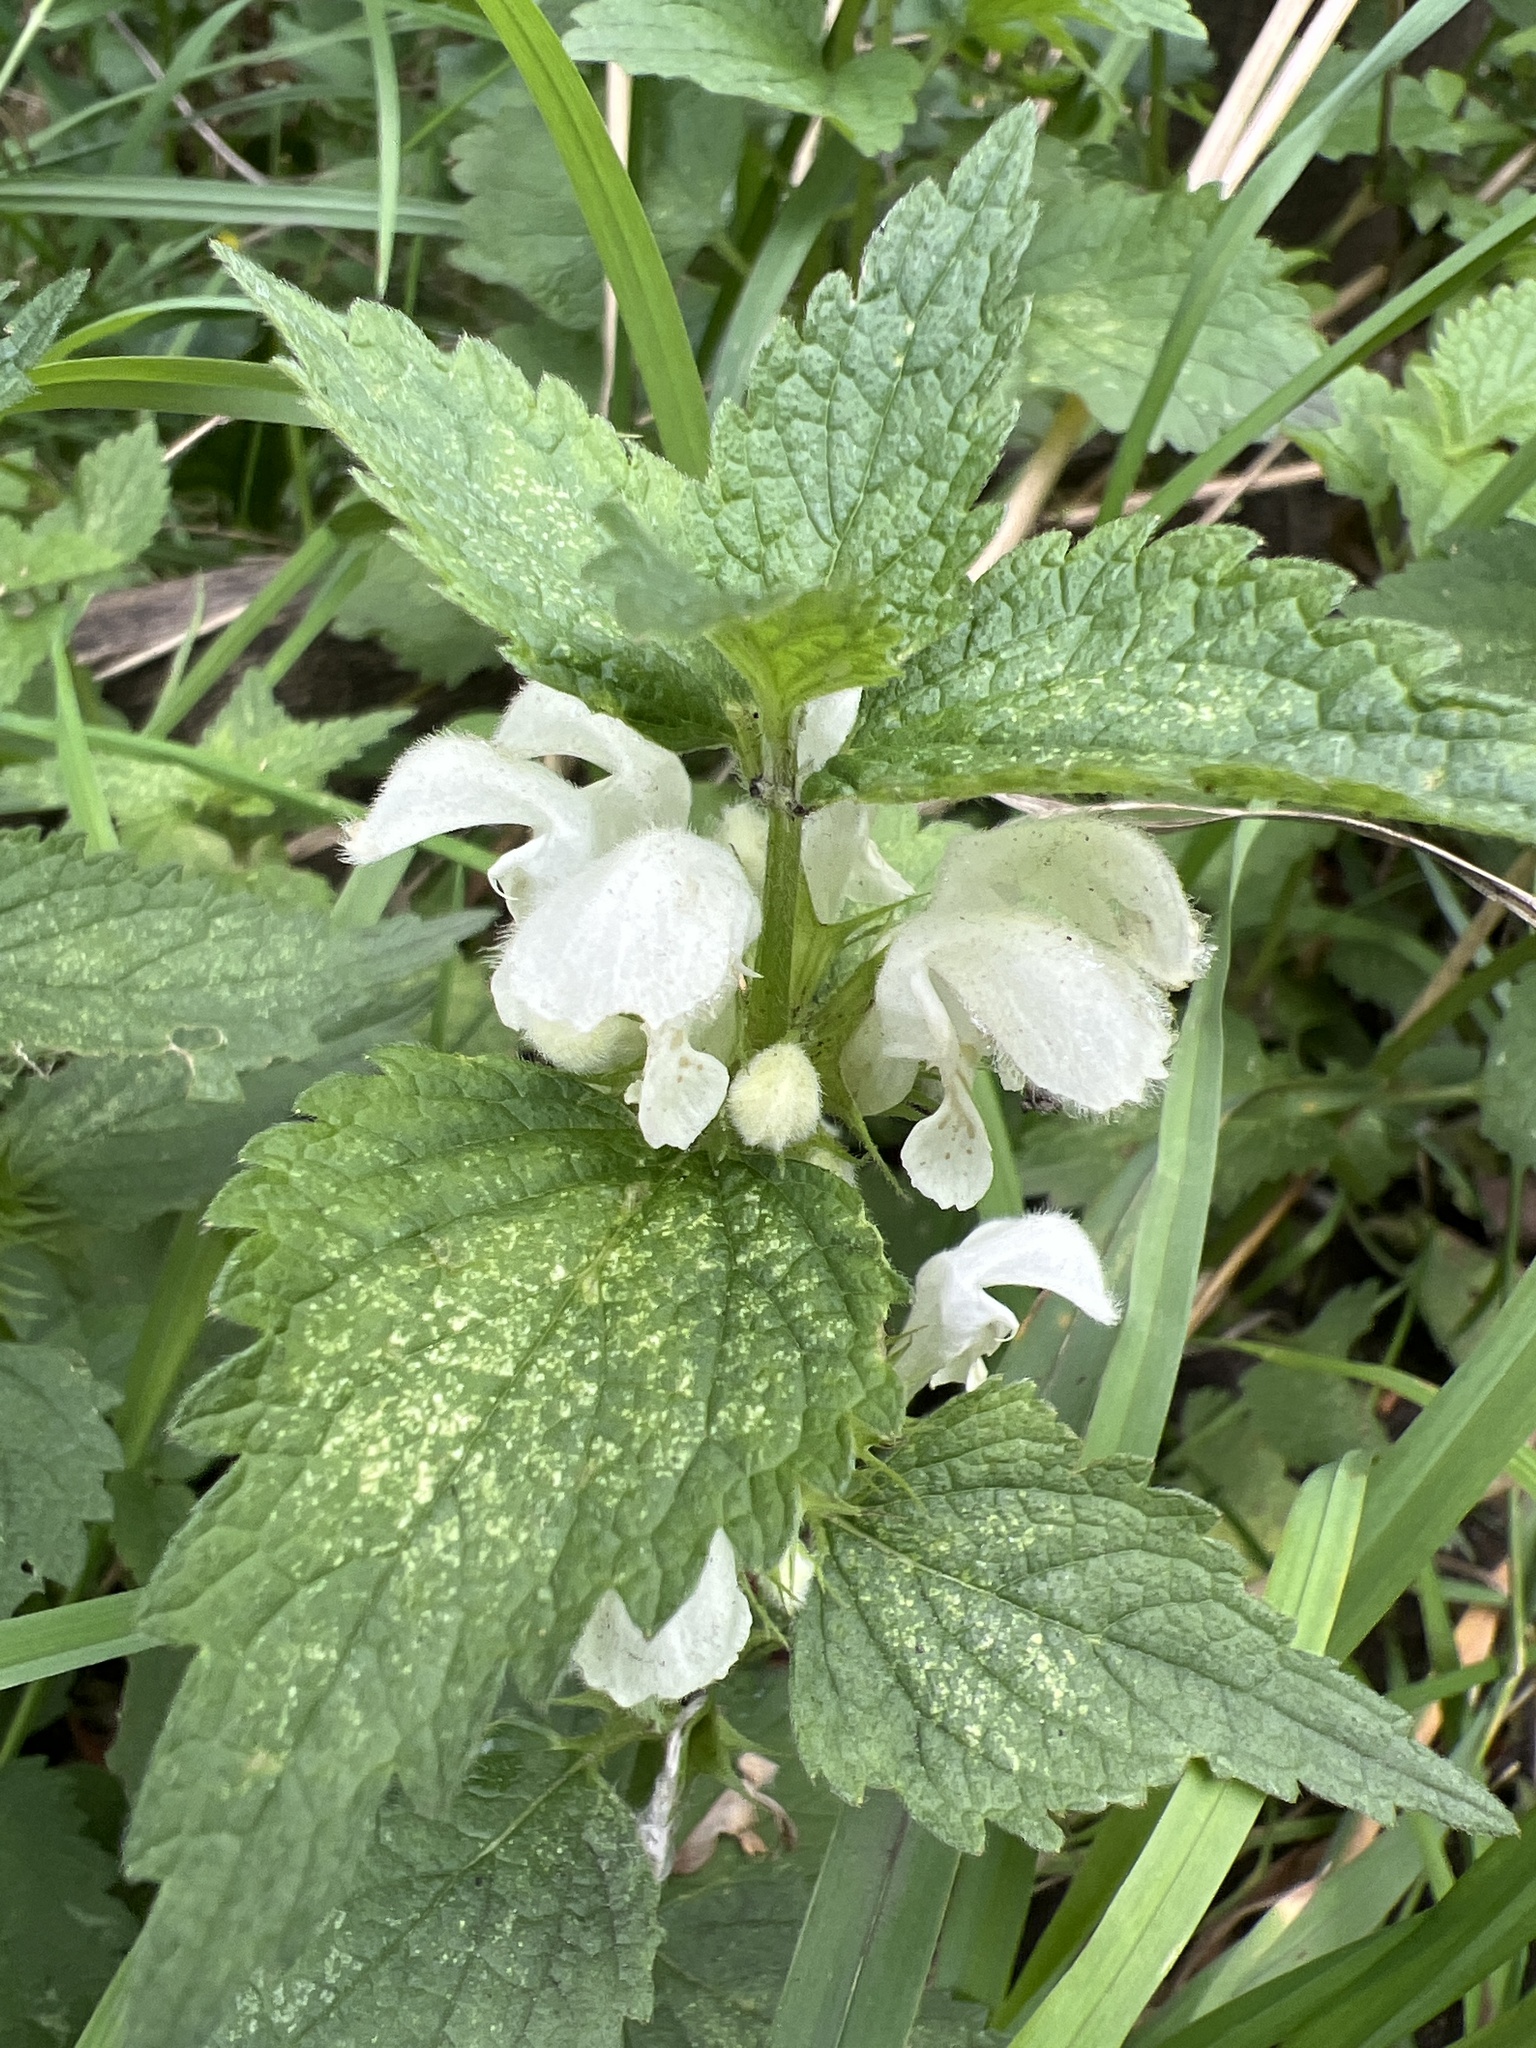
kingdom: Plantae
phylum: Tracheophyta
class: Magnoliopsida
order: Lamiales
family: Lamiaceae
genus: Lamium
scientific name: Lamium album
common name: White dead-nettle
